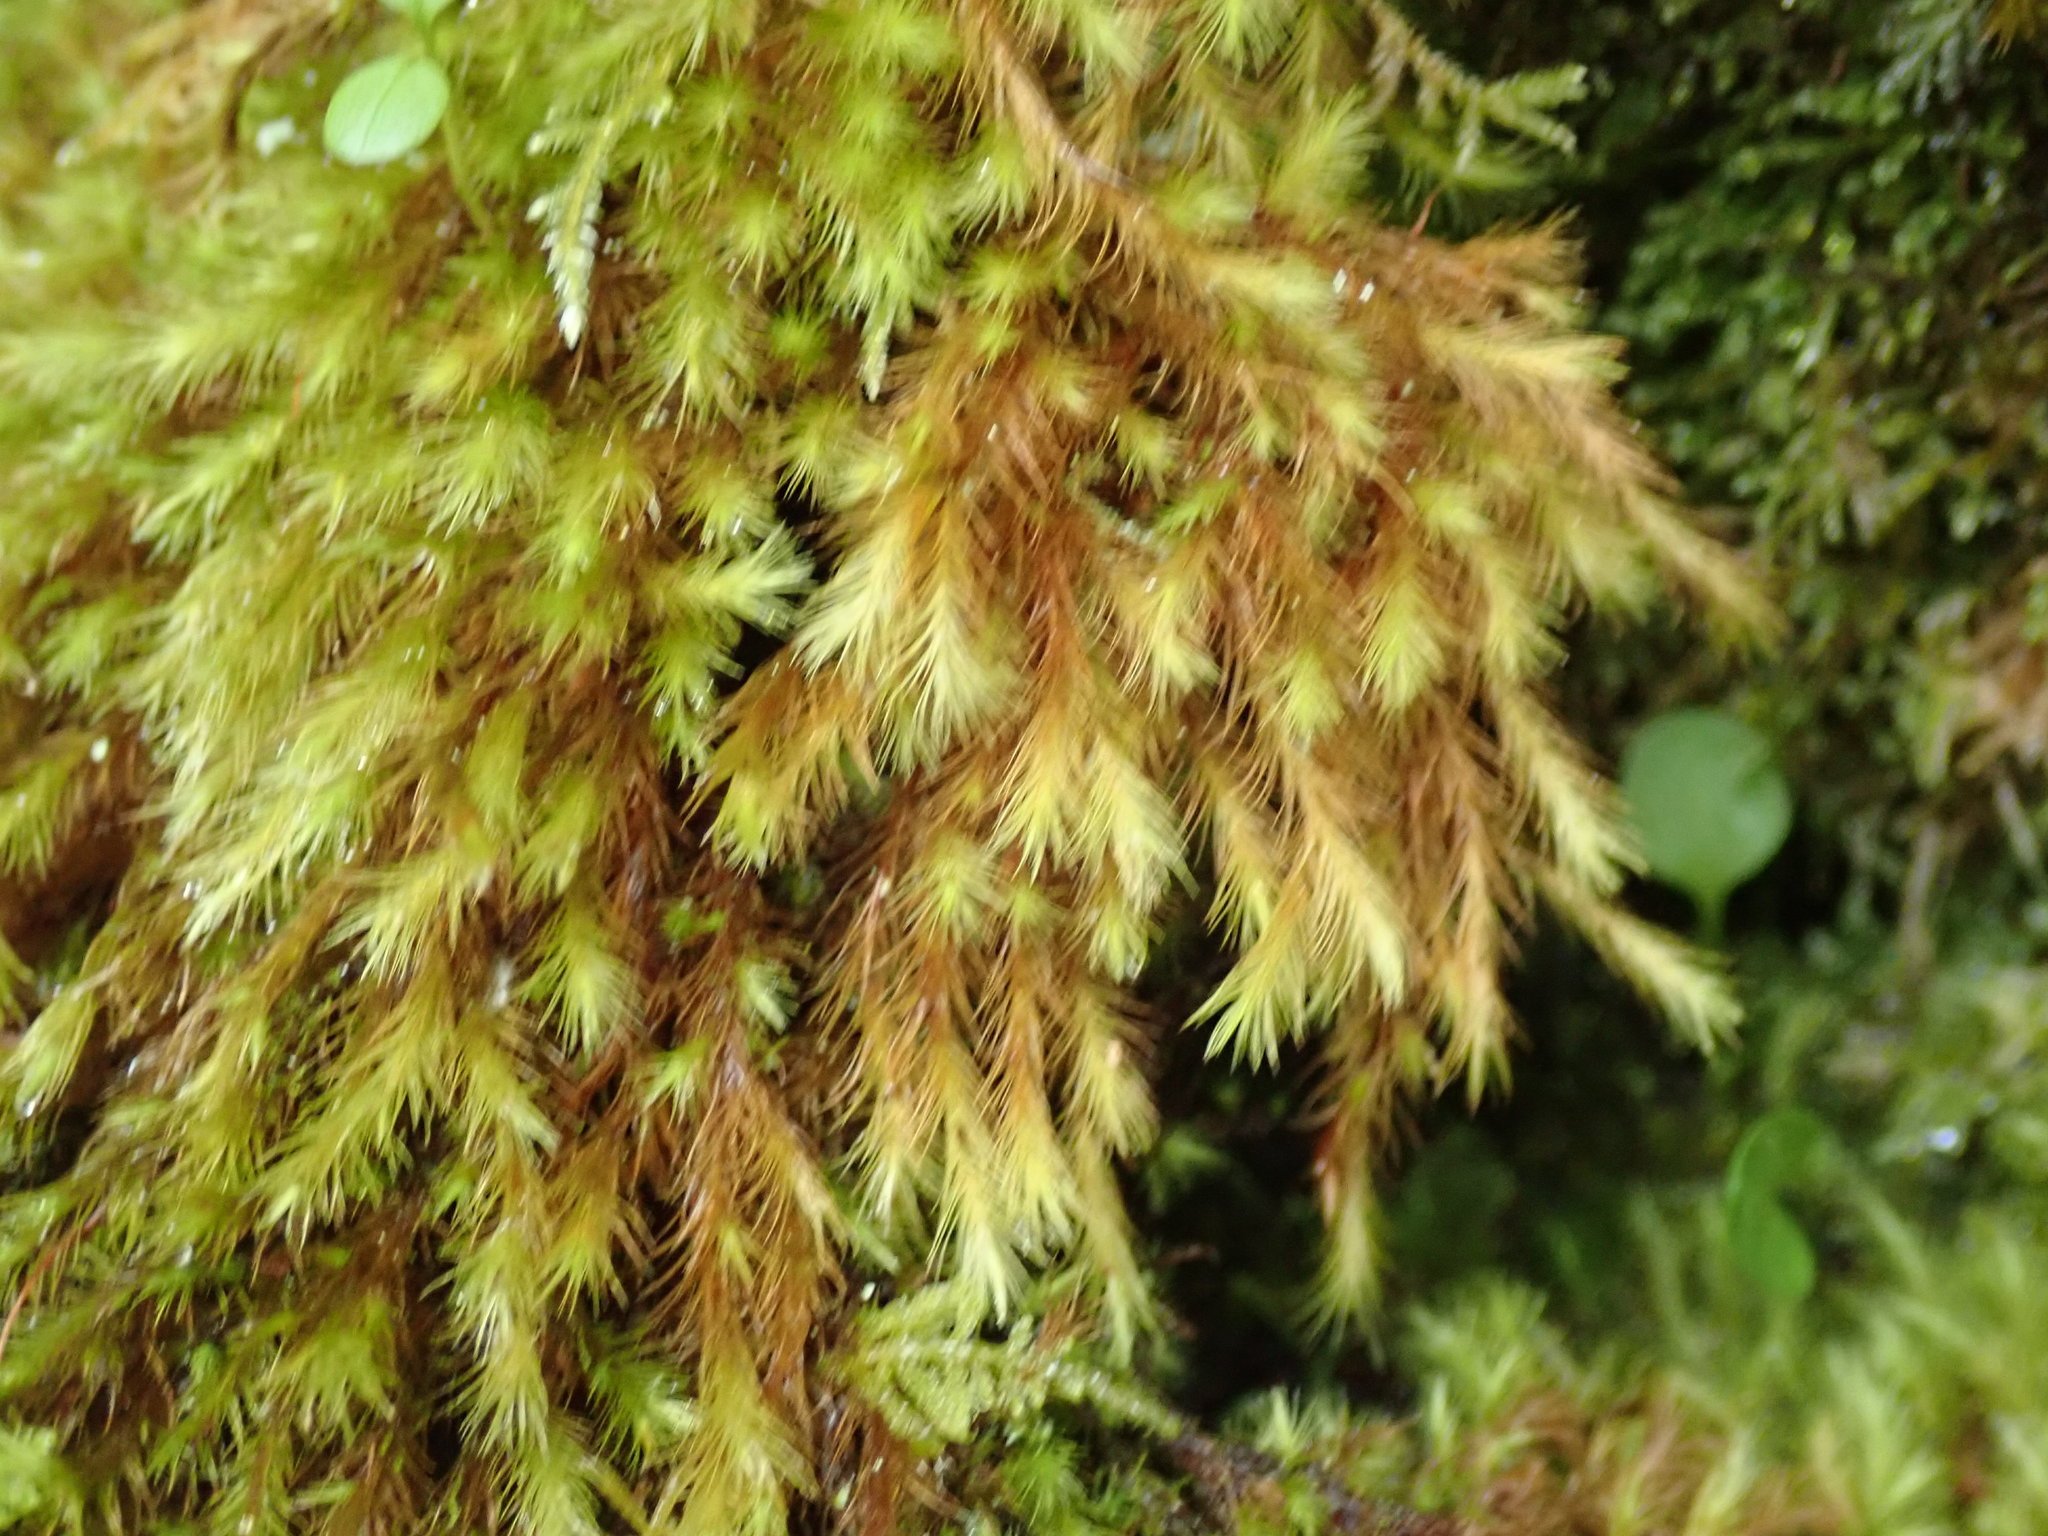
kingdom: Plantae
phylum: Bryophyta
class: Bryopsida
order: Bartramiales
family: Bartramiaceae
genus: Anacolia
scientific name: Anacolia menziesii
